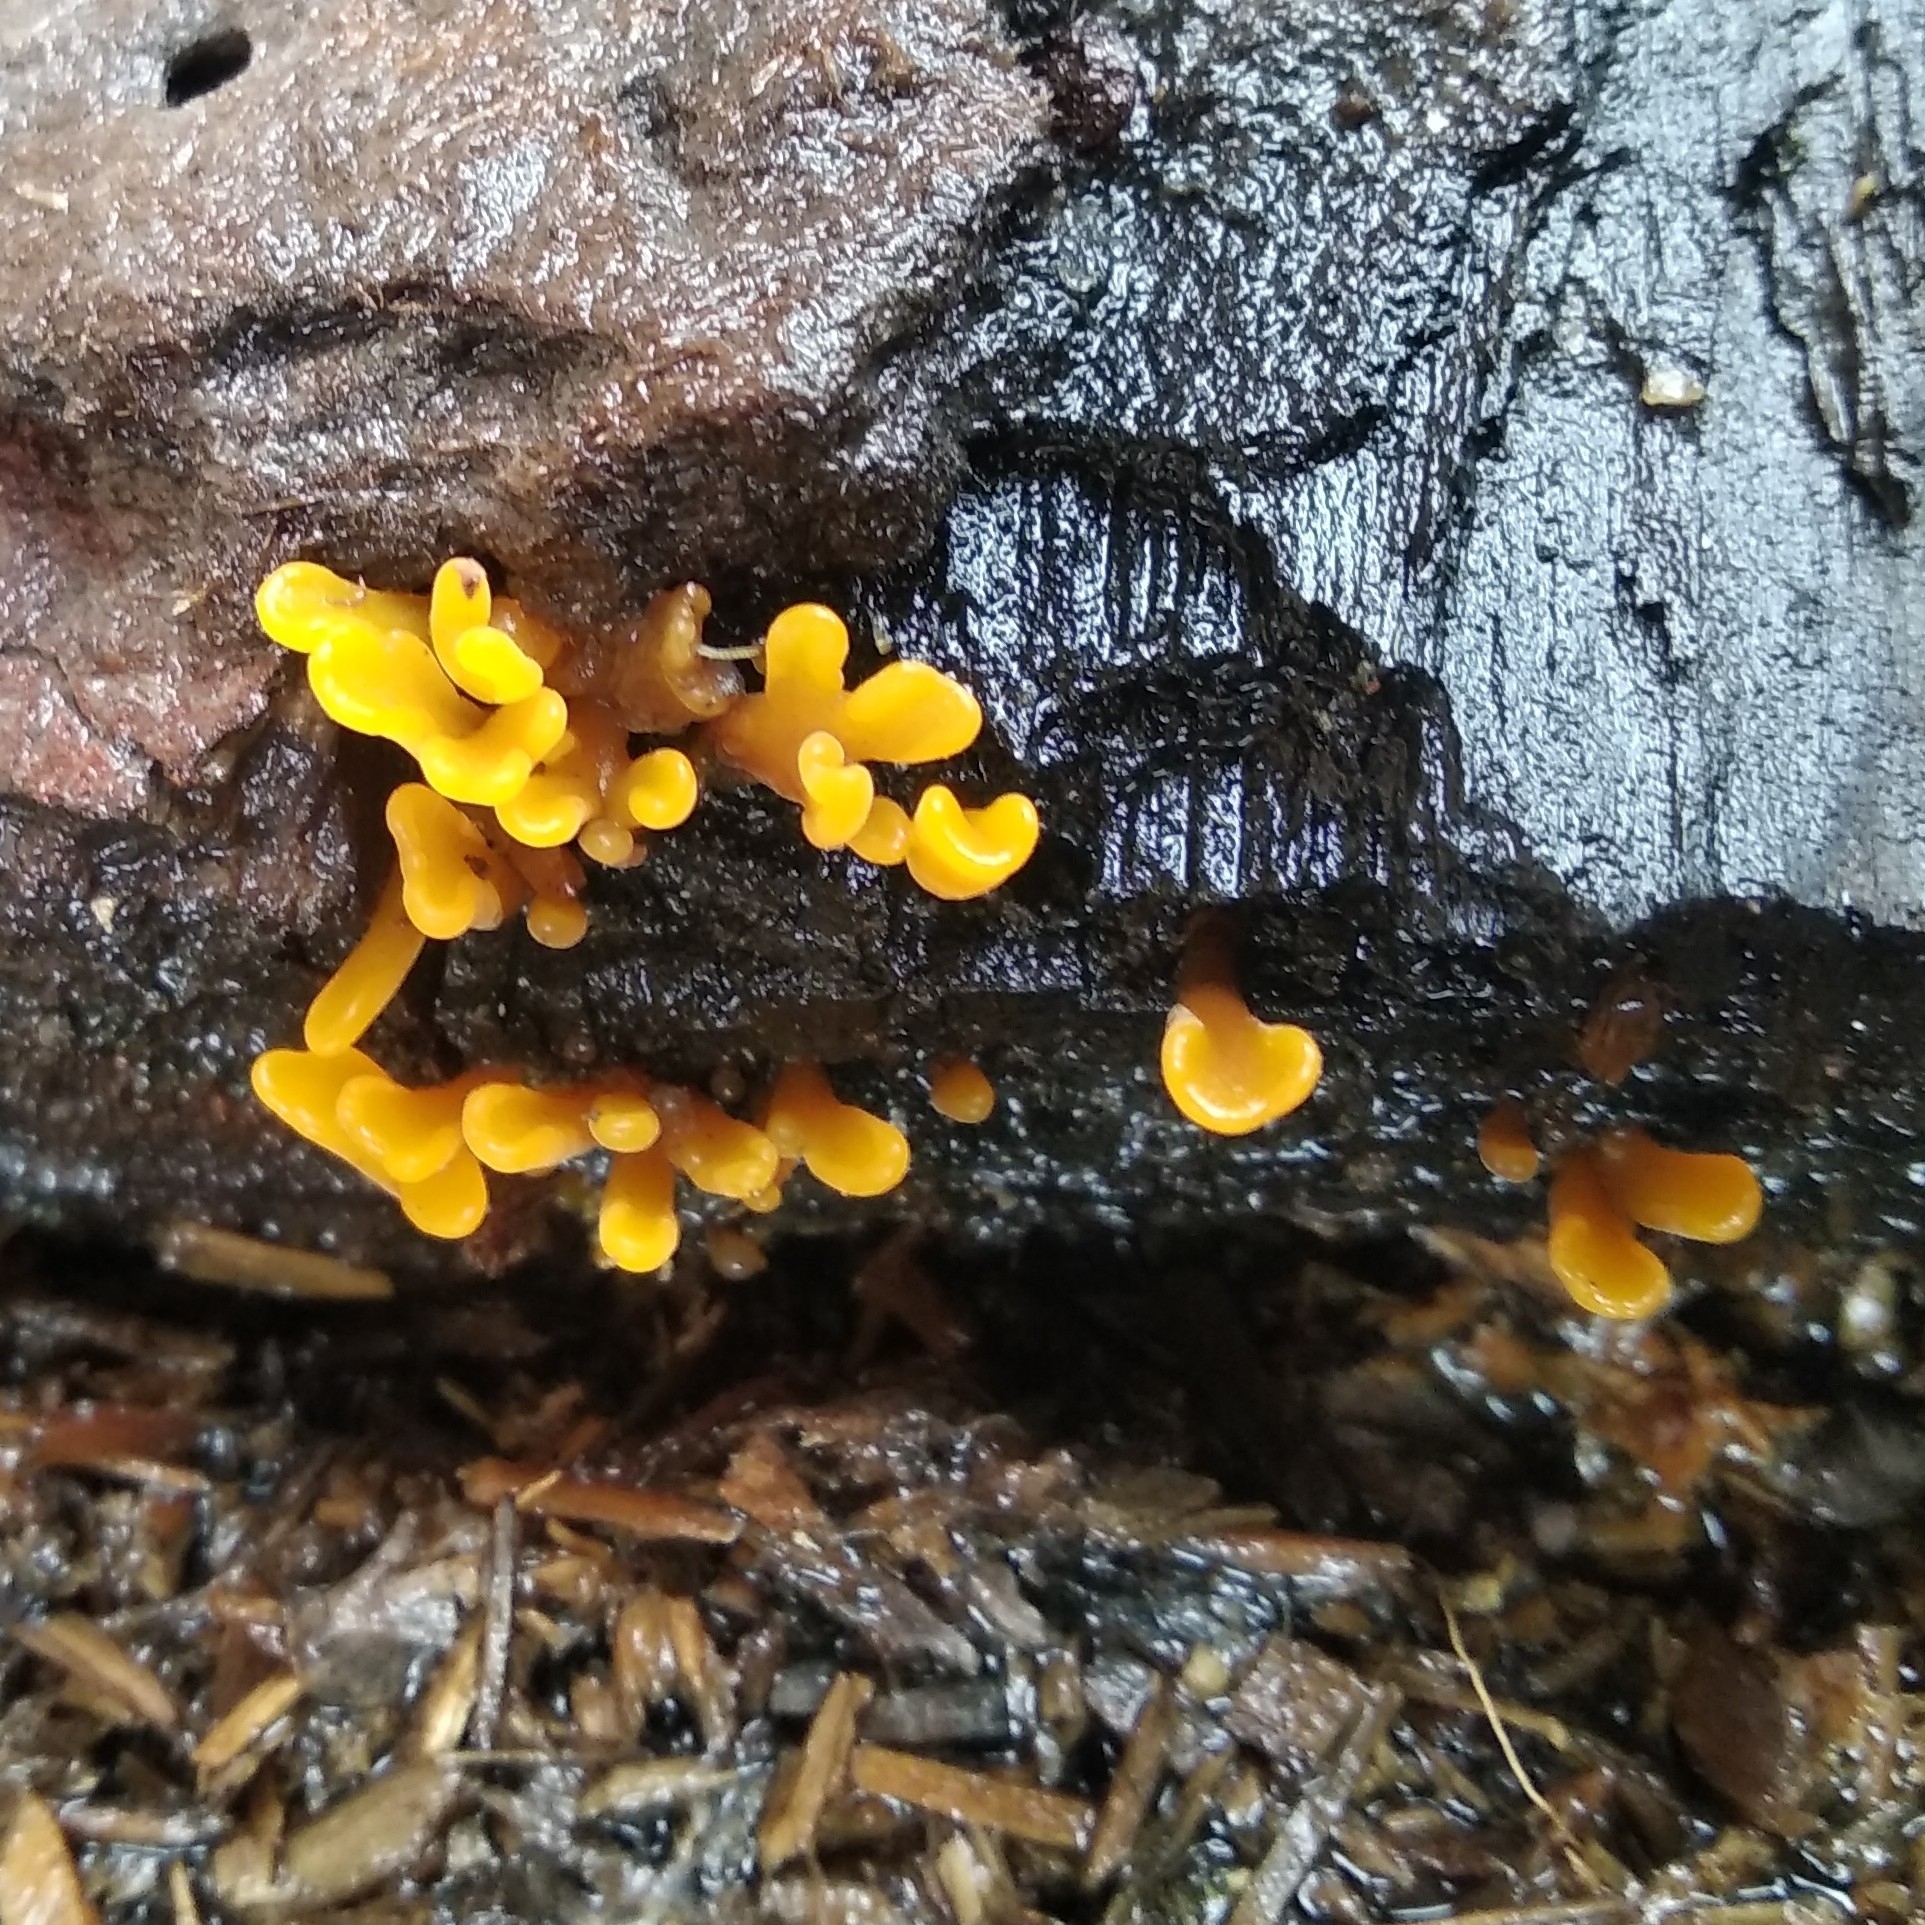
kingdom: Fungi
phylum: Basidiomycota
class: Dacrymycetes
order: Dacrymycetales
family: Dacrymycetaceae
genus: Dacrymyces
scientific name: Dacrymyces spathularius
